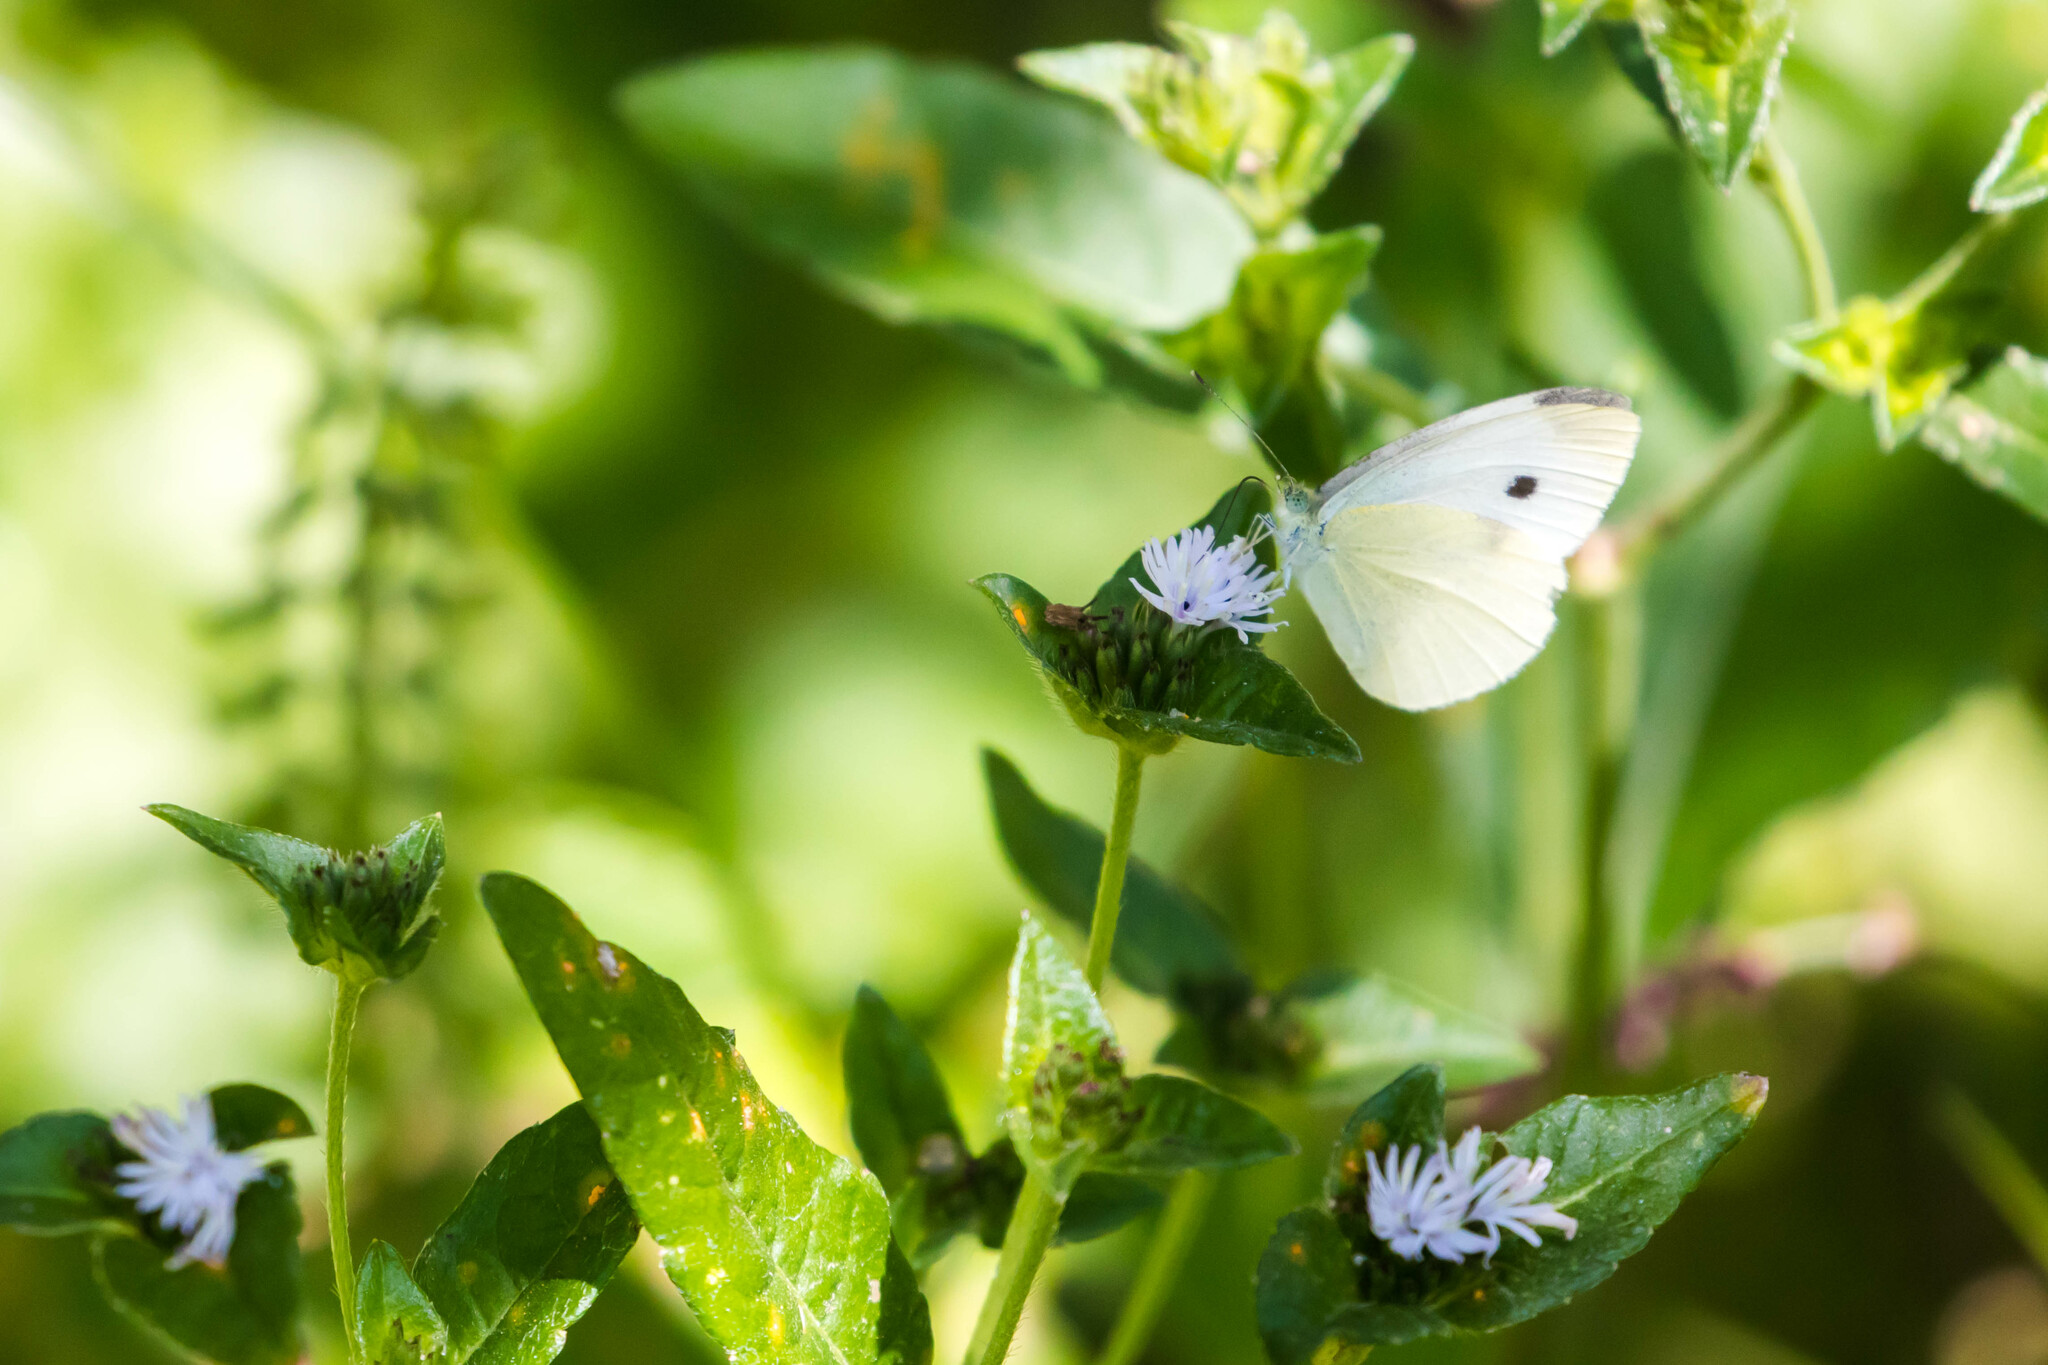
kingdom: Animalia
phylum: Arthropoda
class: Insecta
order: Lepidoptera
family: Pieridae
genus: Pieris
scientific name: Pieris rapae
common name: Small white
